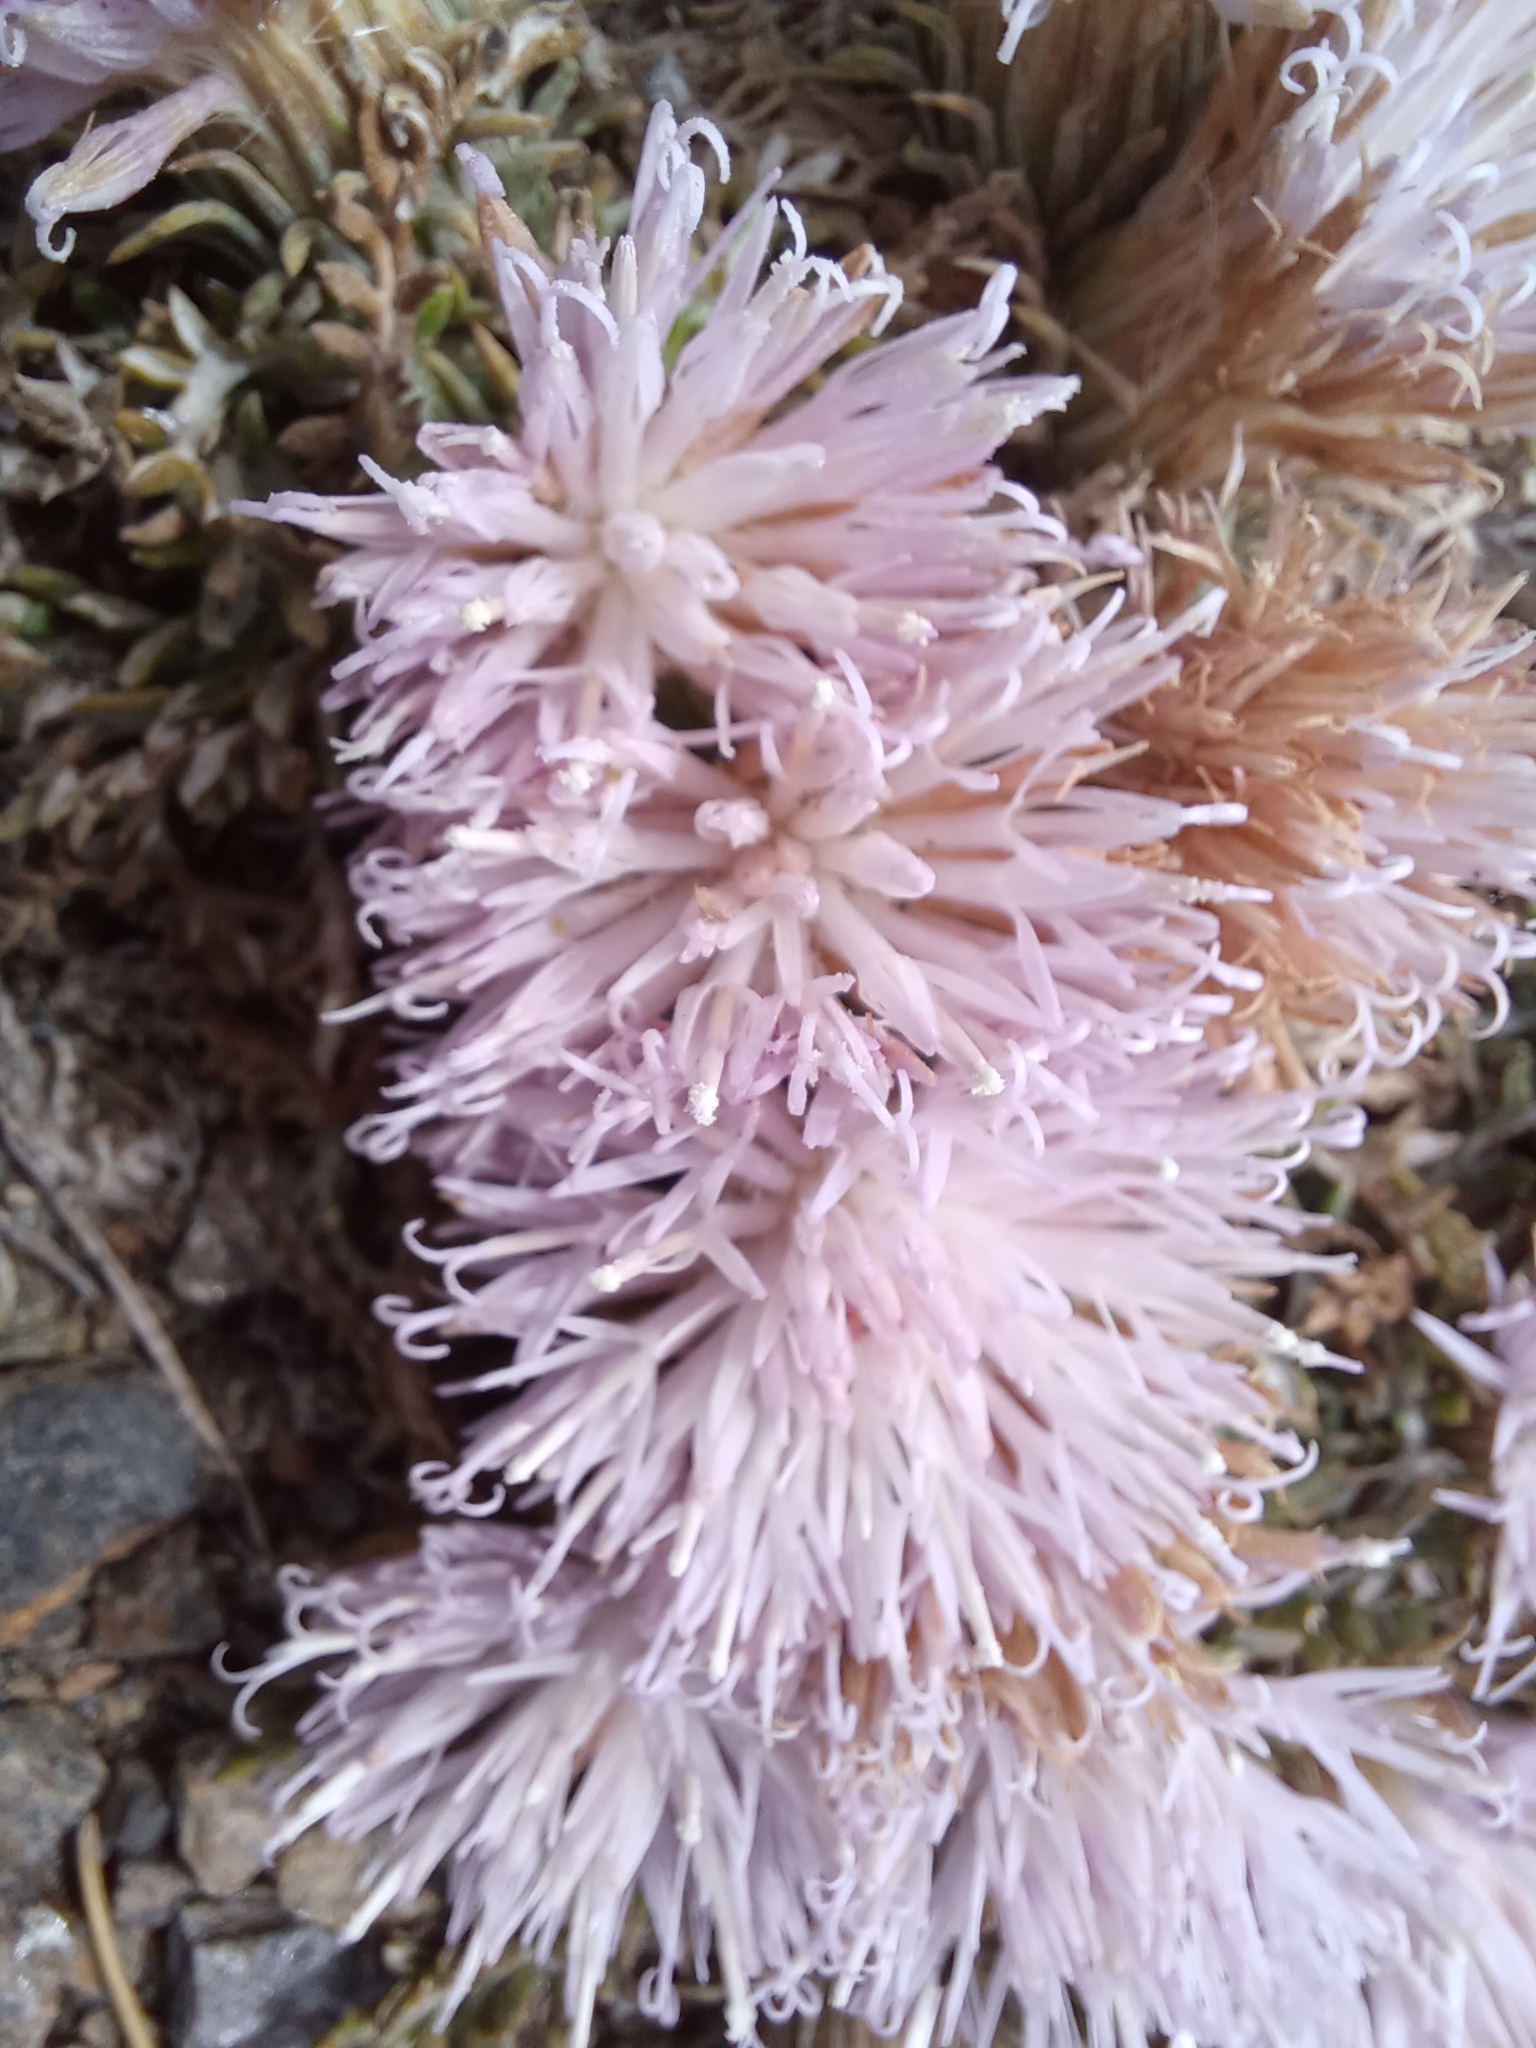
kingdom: Plantae
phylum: Tracheophyta
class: Magnoliopsida
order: Asterales
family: Asteraceae
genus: Jurinea
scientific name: Jurinea humilis
